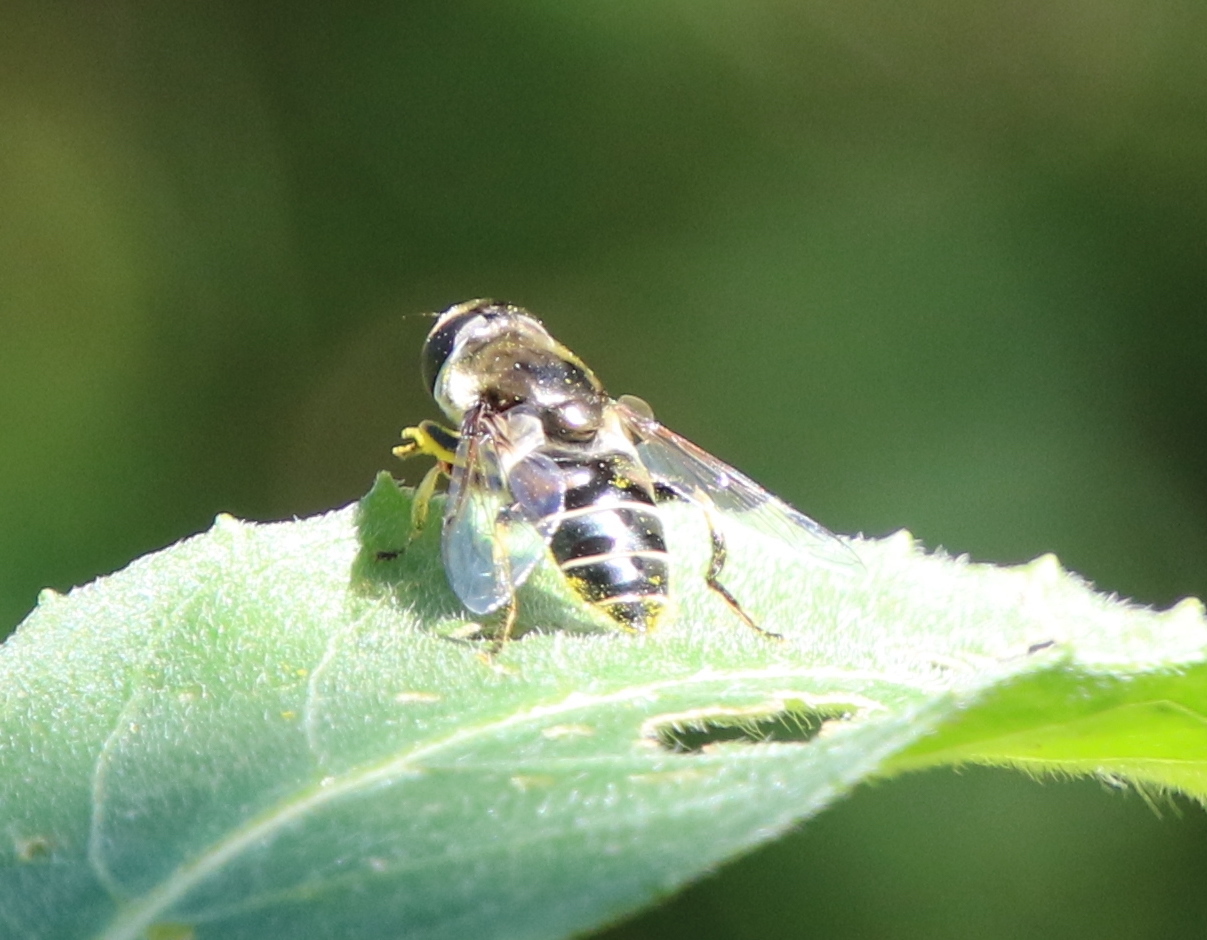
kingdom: Animalia
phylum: Arthropoda
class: Insecta
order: Diptera
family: Syrphidae
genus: Eristalis
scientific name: Eristalis dimidiata
